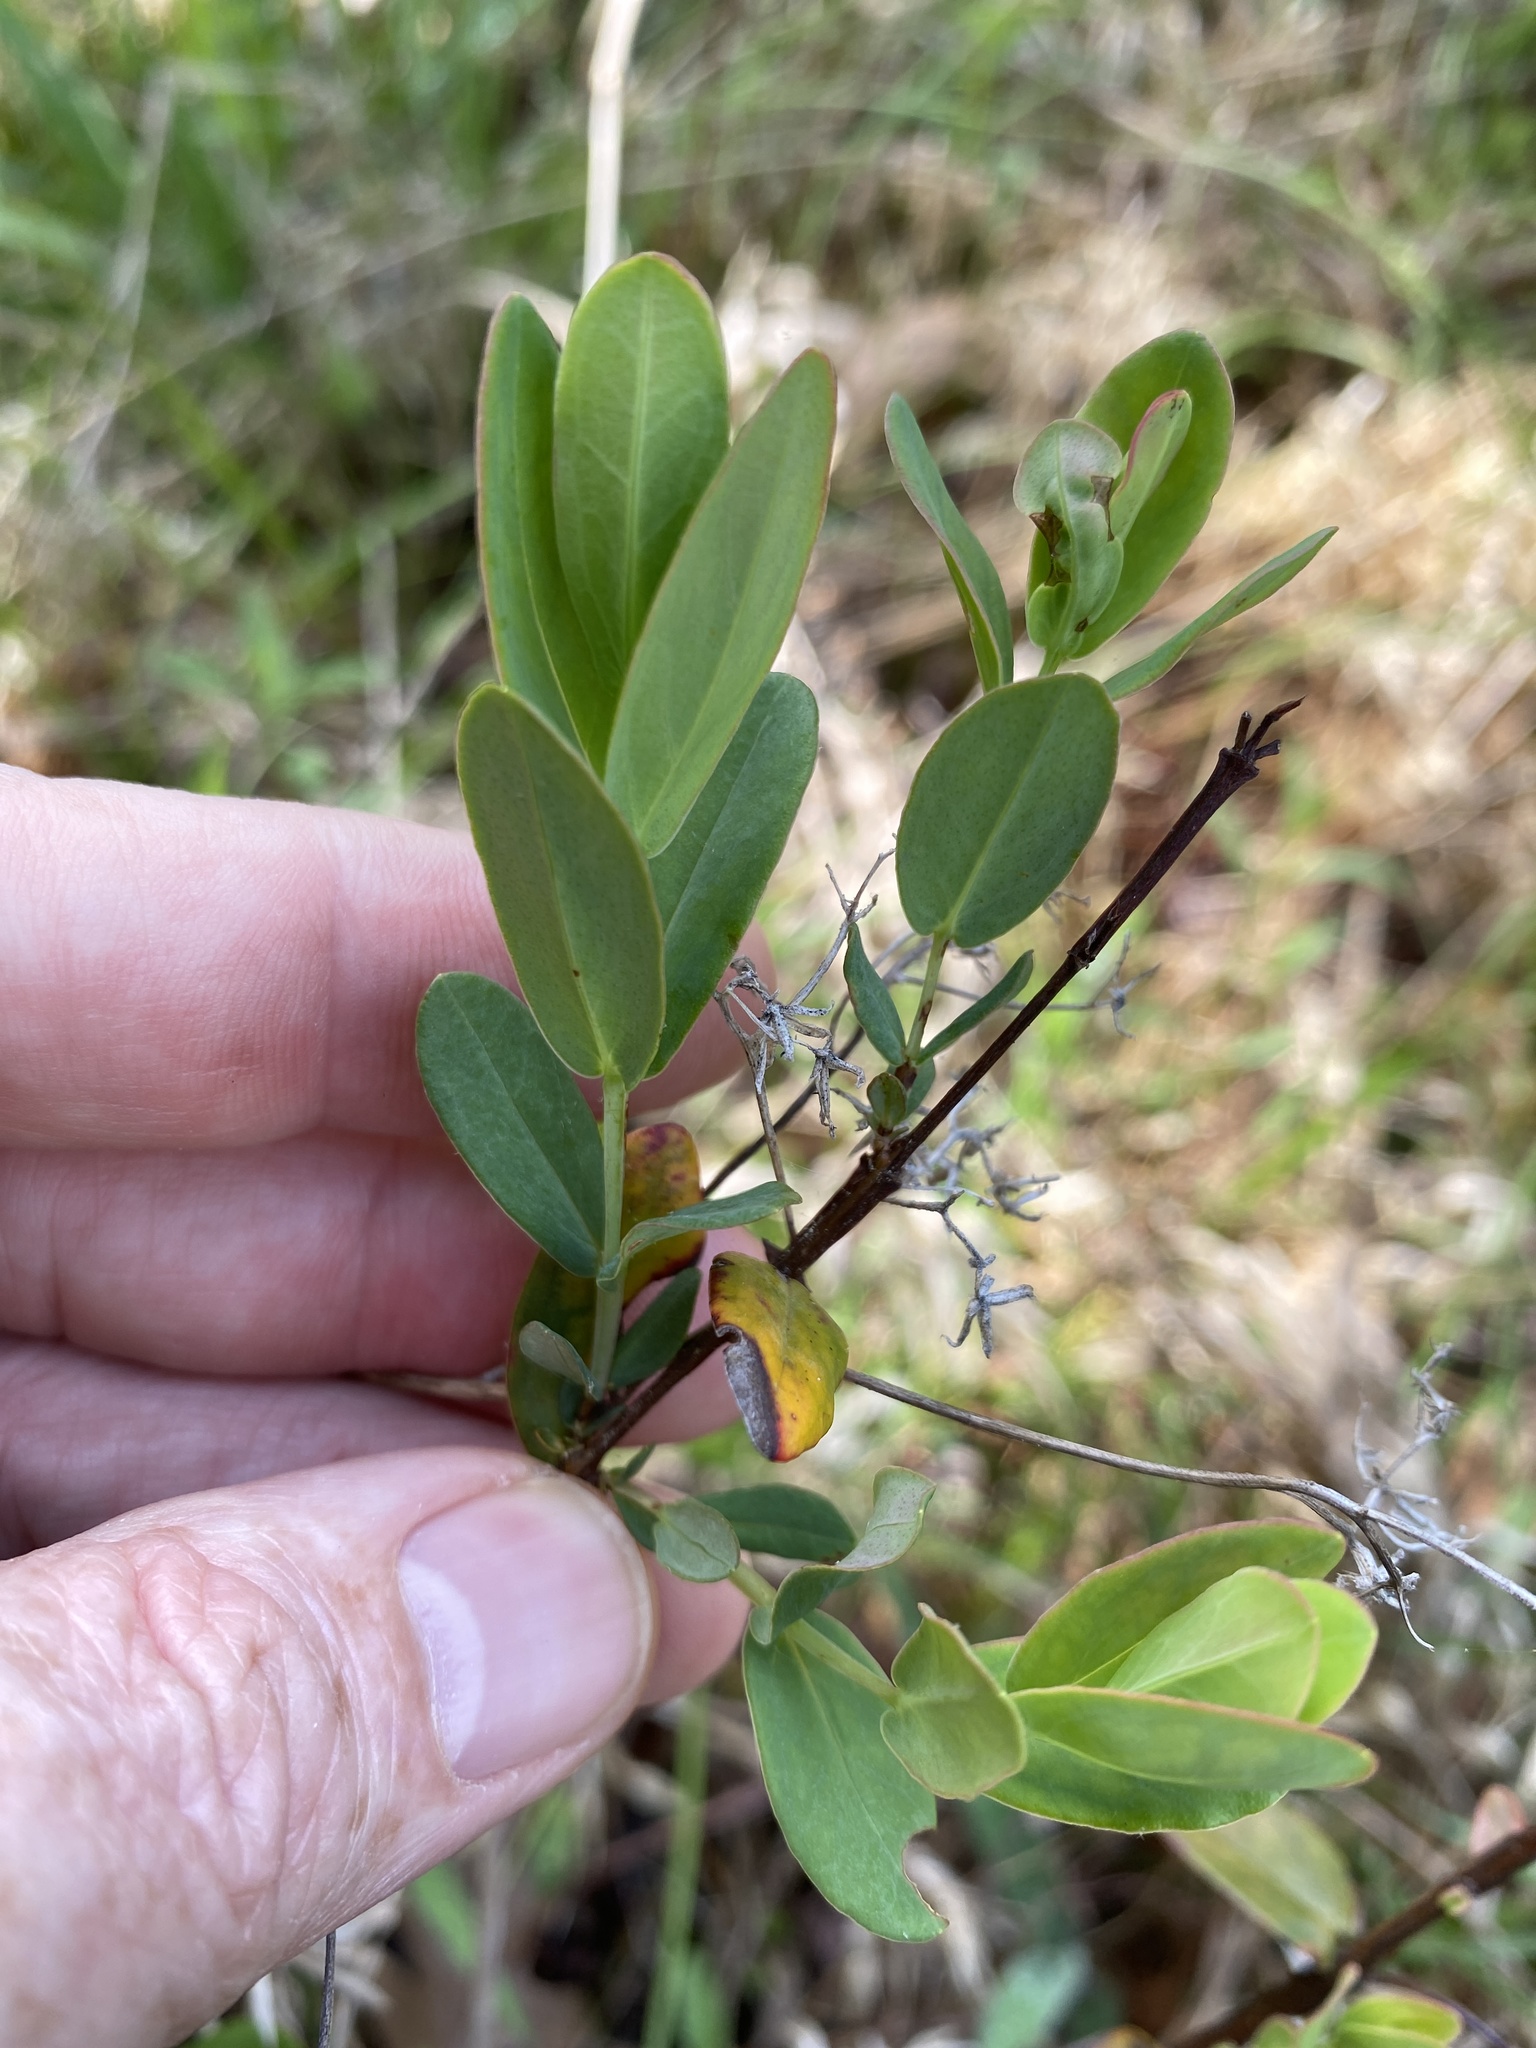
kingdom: Plantae
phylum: Tracheophyta
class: Magnoliopsida
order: Malpighiales
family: Hypericaceae
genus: Hypericum
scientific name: Hypericum crux-andreae
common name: St.-peter's-wort
